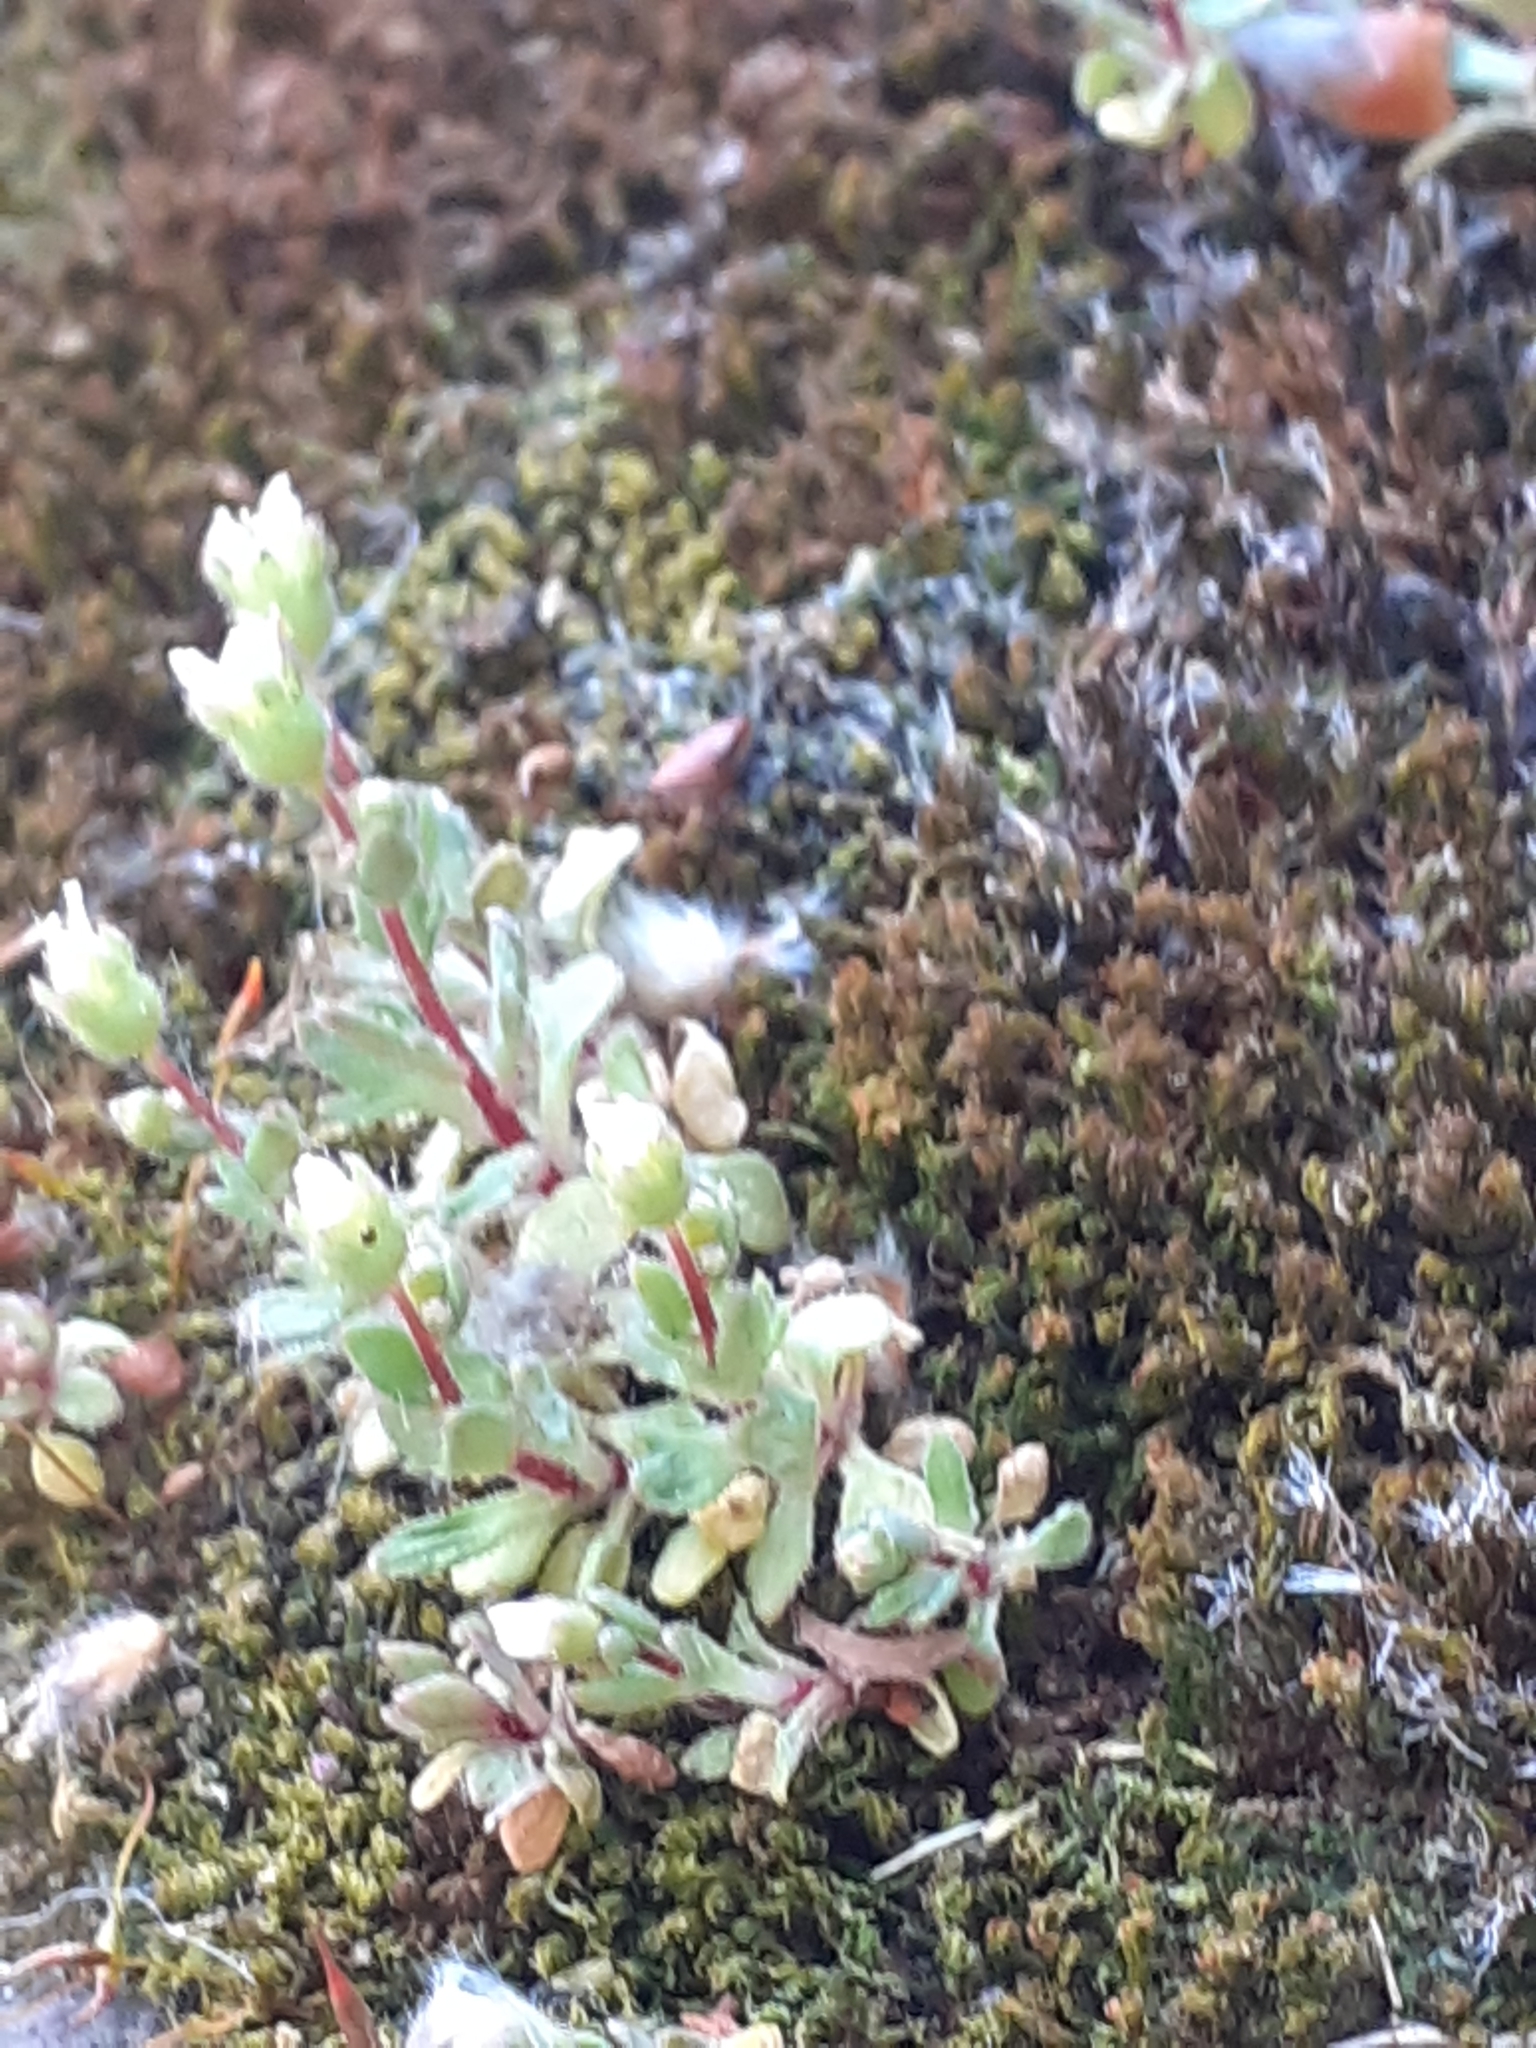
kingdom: Plantae
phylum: Tracheophyta
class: Magnoliopsida
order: Saxifragales
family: Saxifragaceae
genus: Saxifraga
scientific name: Saxifraga tridactylites
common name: Rue-leaved saxifrage
